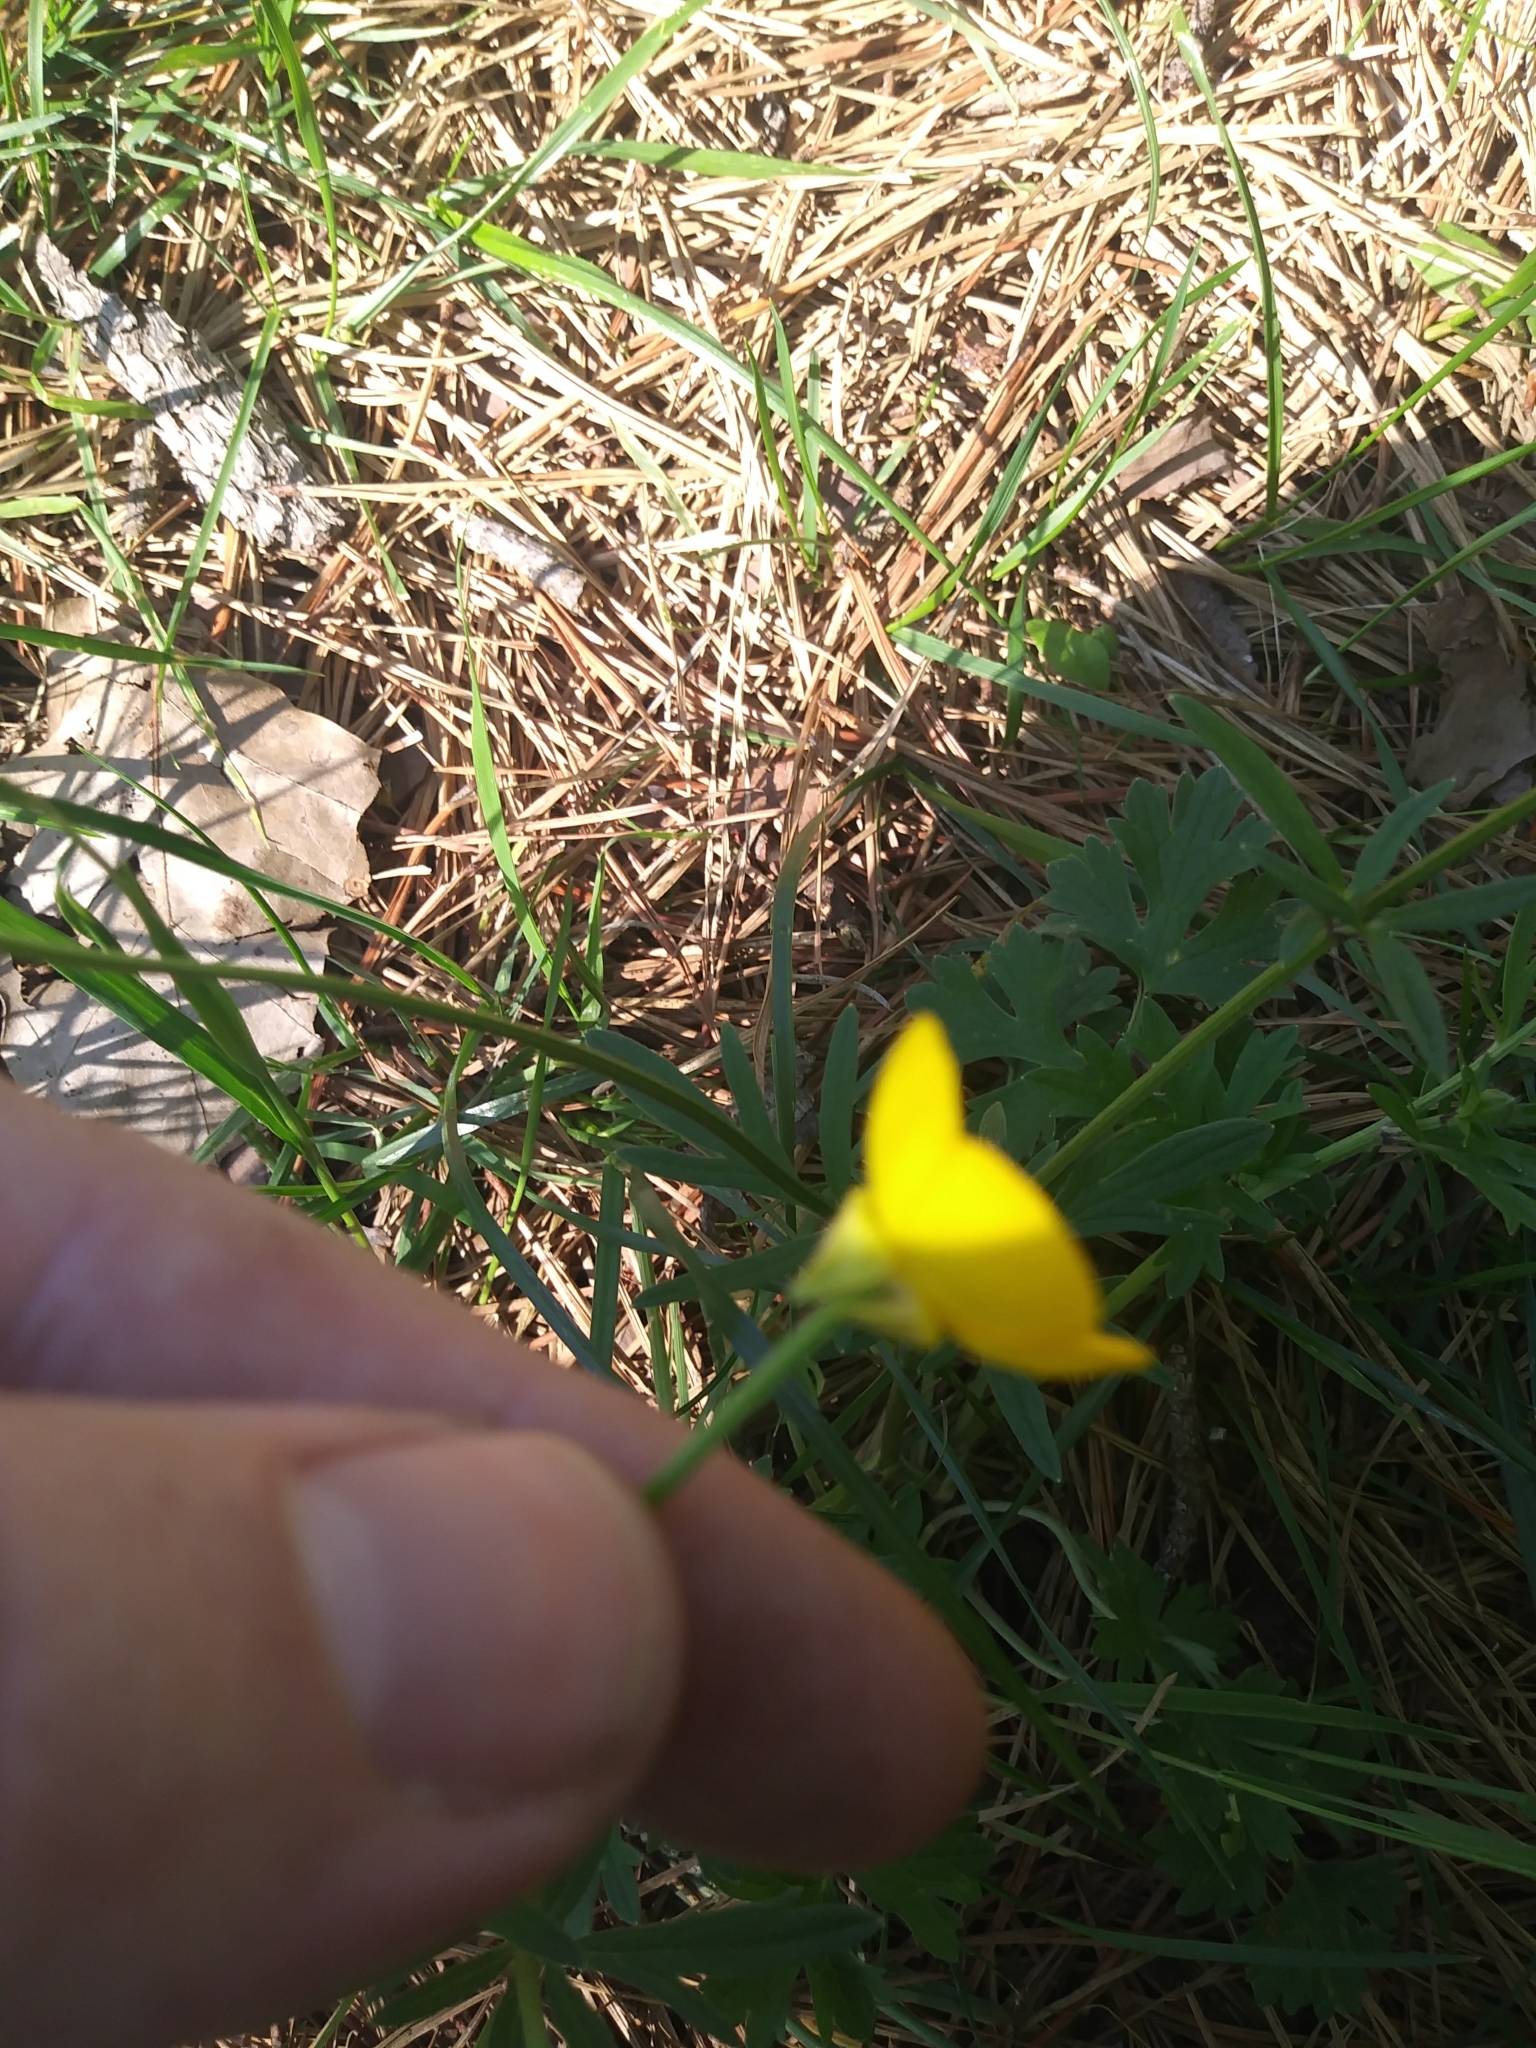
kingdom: Plantae
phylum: Tracheophyta
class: Magnoliopsida
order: Ranunculales
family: Ranunculaceae
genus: Ranunculus
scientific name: Ranunculus bulbosus
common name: Bulbous buttercup
